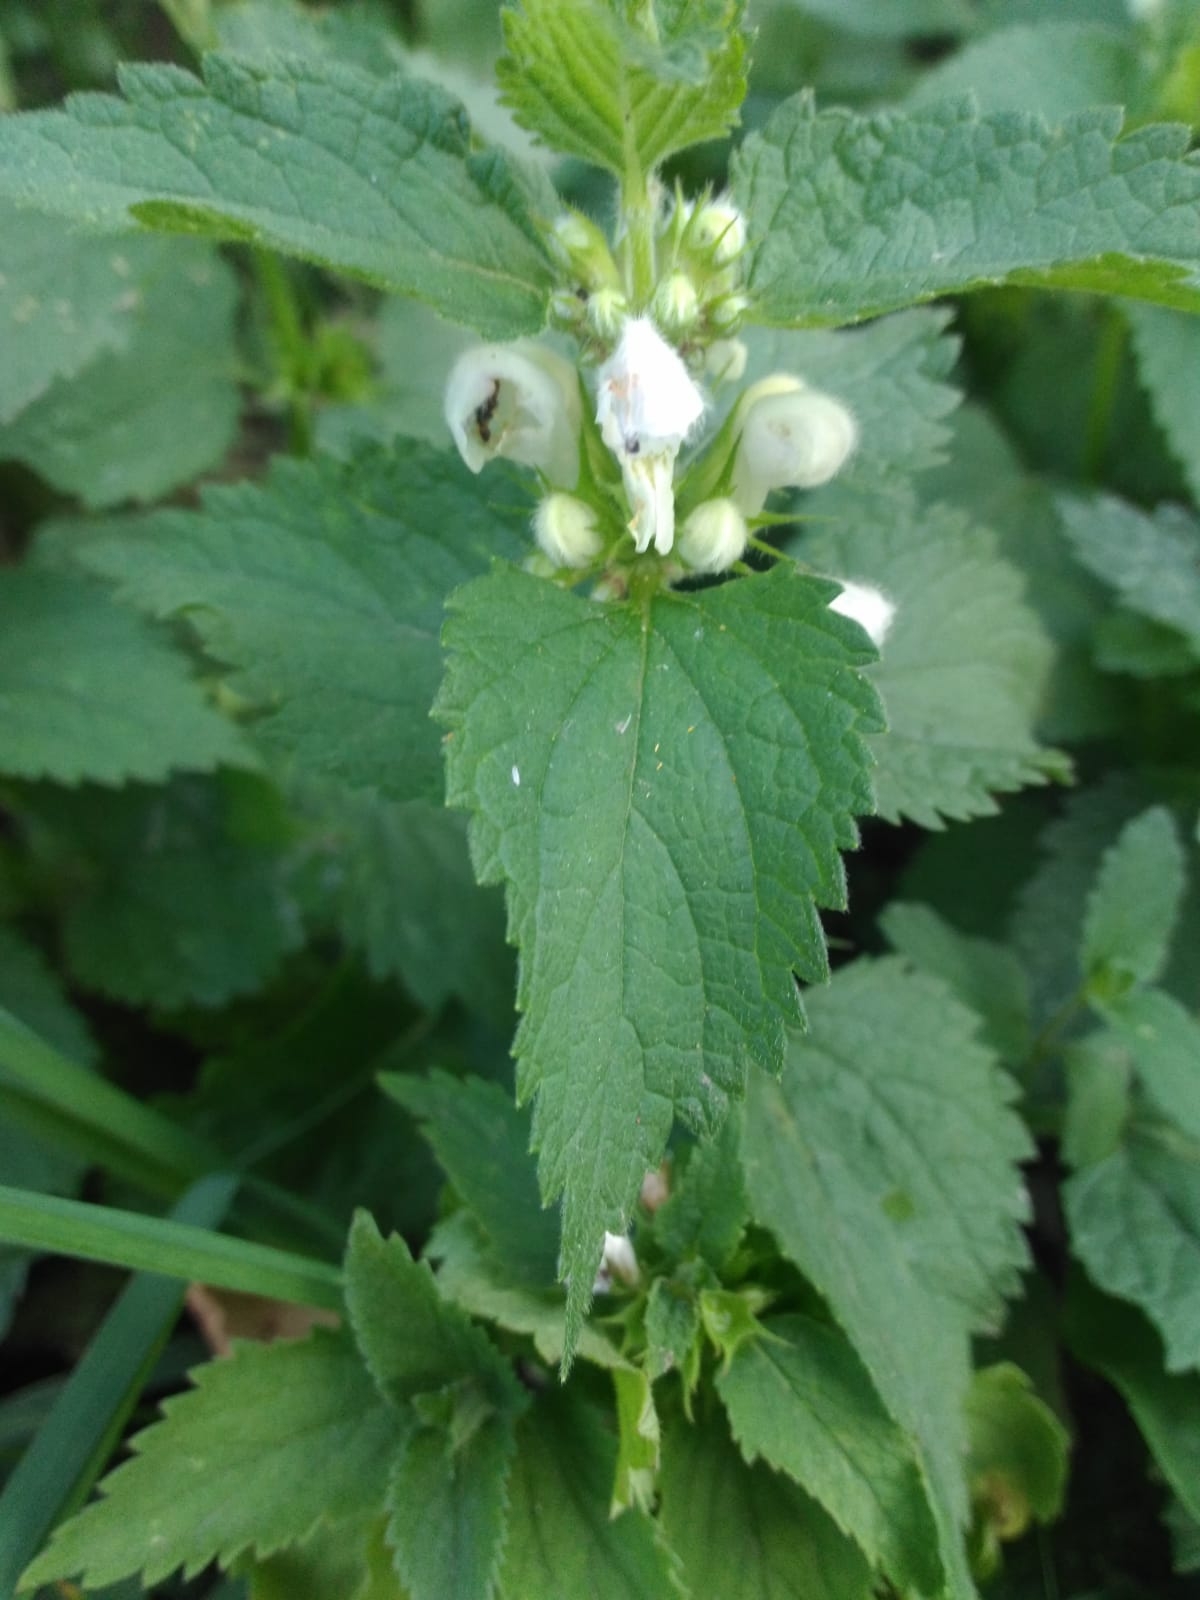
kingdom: Plantae
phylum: Tracheophyta
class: Magnoliopsida
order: Lamiales
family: Lamiaceae
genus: Lamium
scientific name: Lamium album
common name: White dead-nettle
